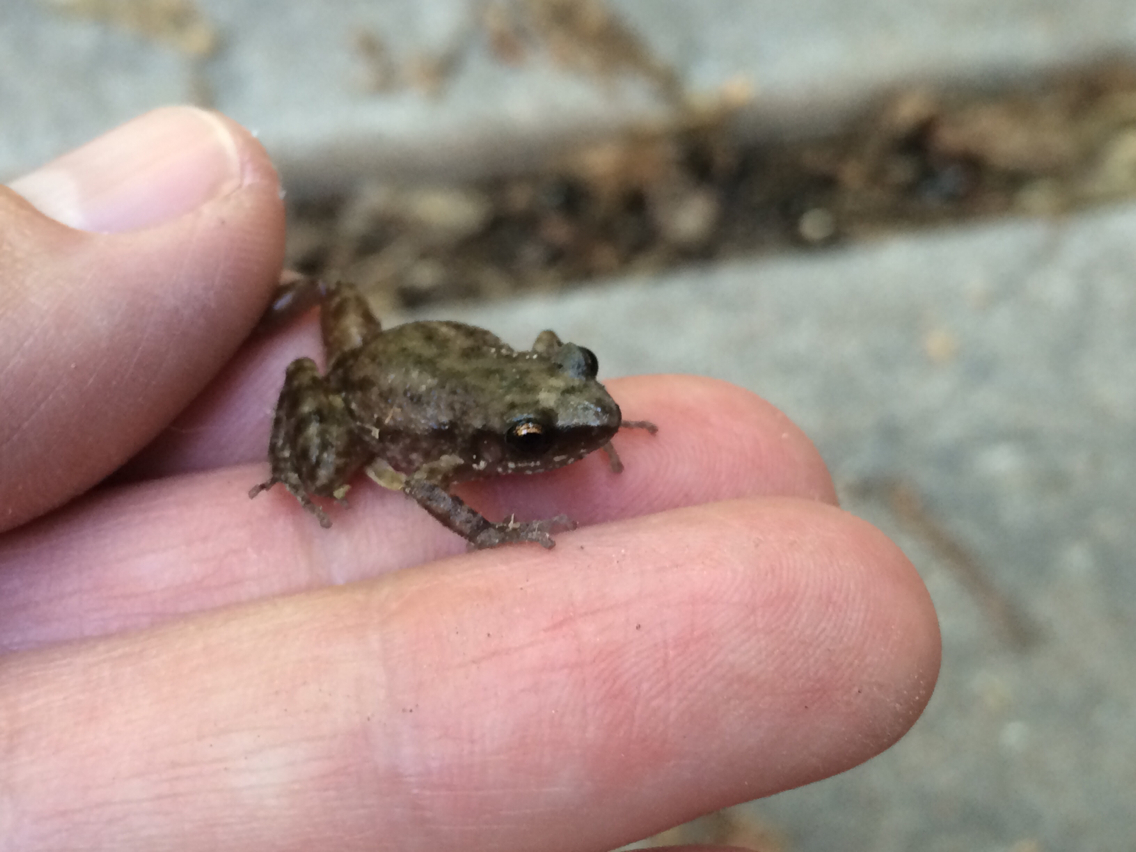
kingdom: Animalia
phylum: Chordata
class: Amphibia
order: Anura
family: Eleutherodactylidae
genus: Eleutherodactylus
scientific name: Eleutherodactylus campi
